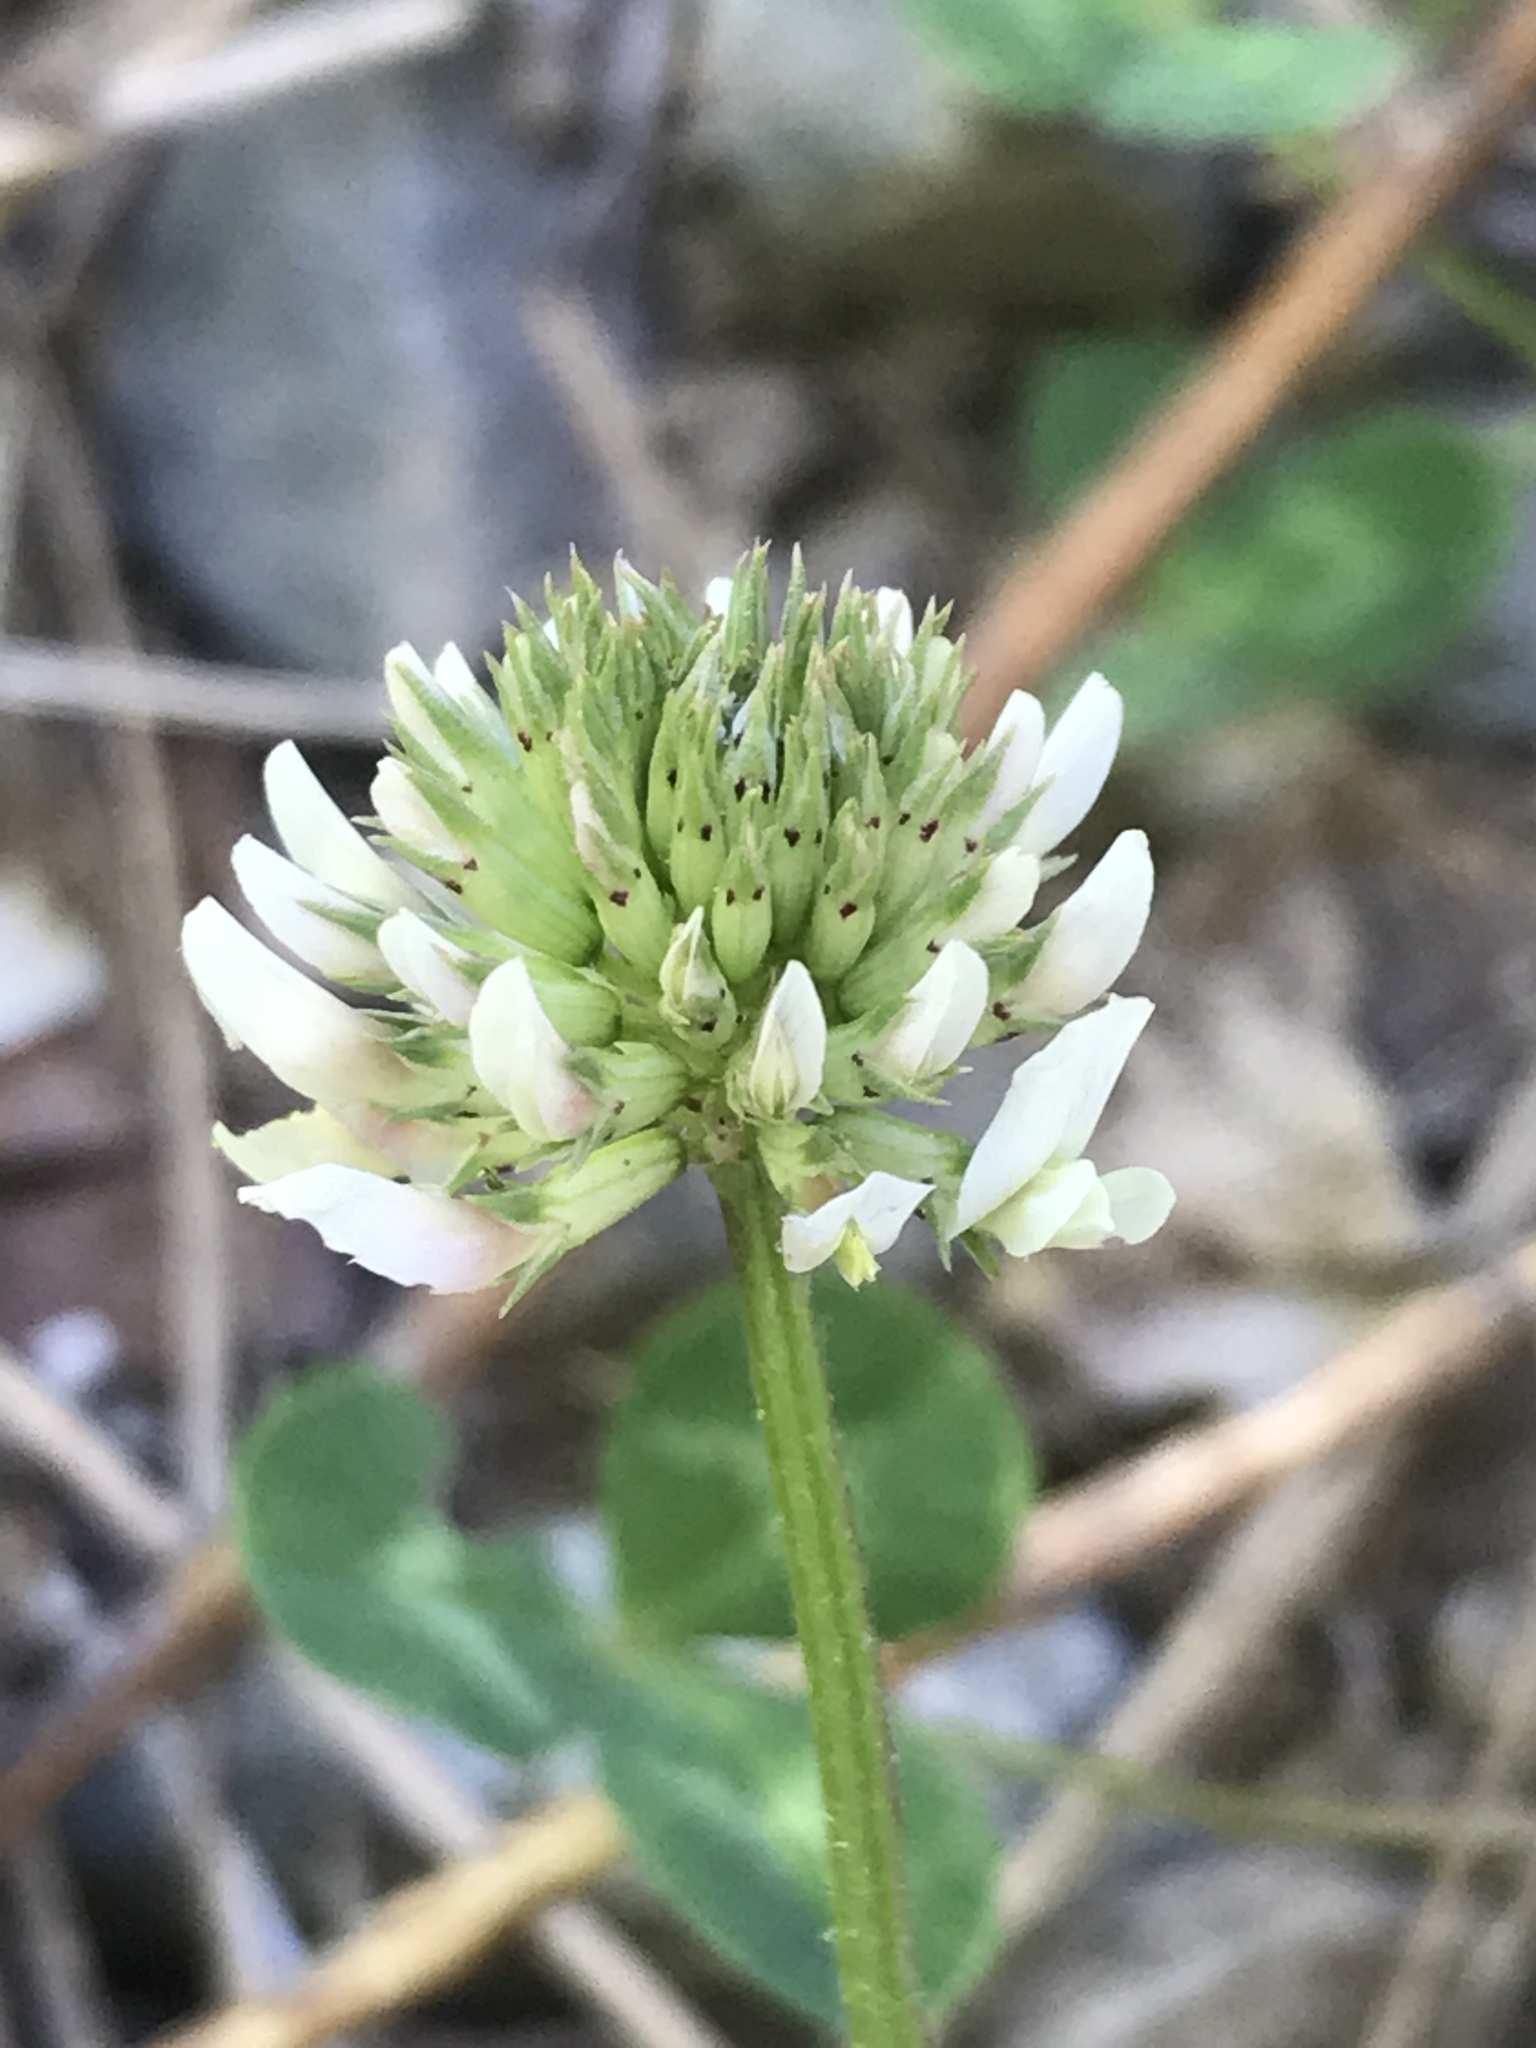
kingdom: Plantae
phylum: Tracheophyta
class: Magnoliopsida
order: Fabales
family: Fabaceae
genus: Trifolium
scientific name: Trifolium repens
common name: White clover
